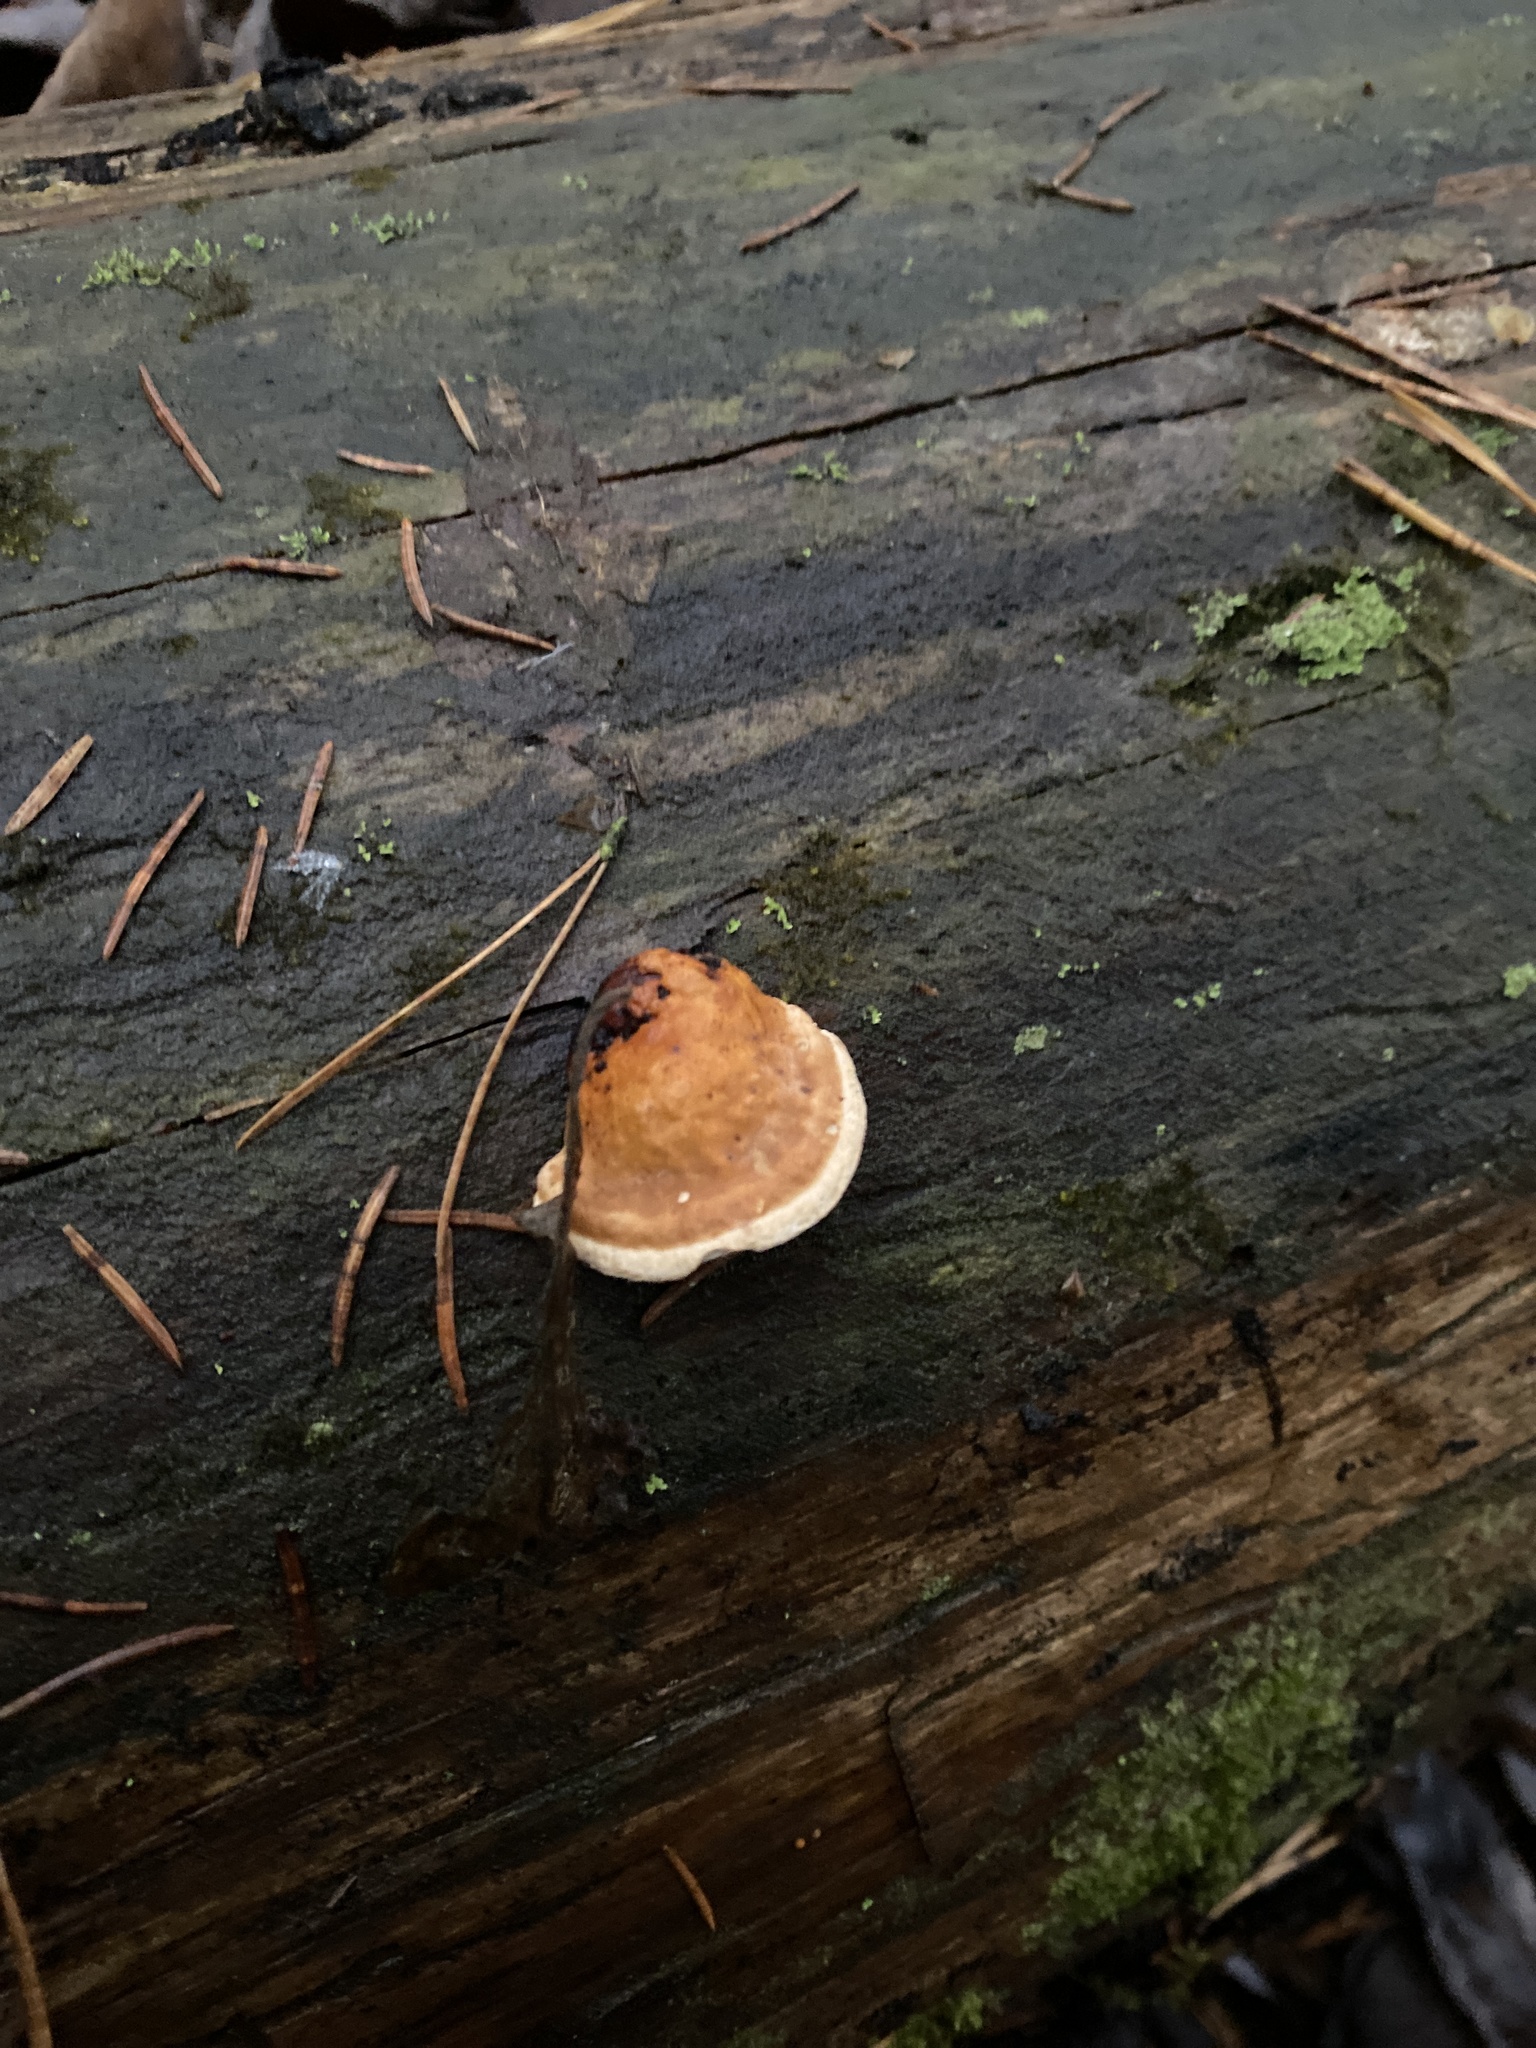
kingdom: Fungi
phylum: Basidiomycota
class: Agaricomycetes
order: Polyporales
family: Fomitopsidaceae
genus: Fomitopsis
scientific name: Fomitopsis pinicola
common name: Red-belted bracket
